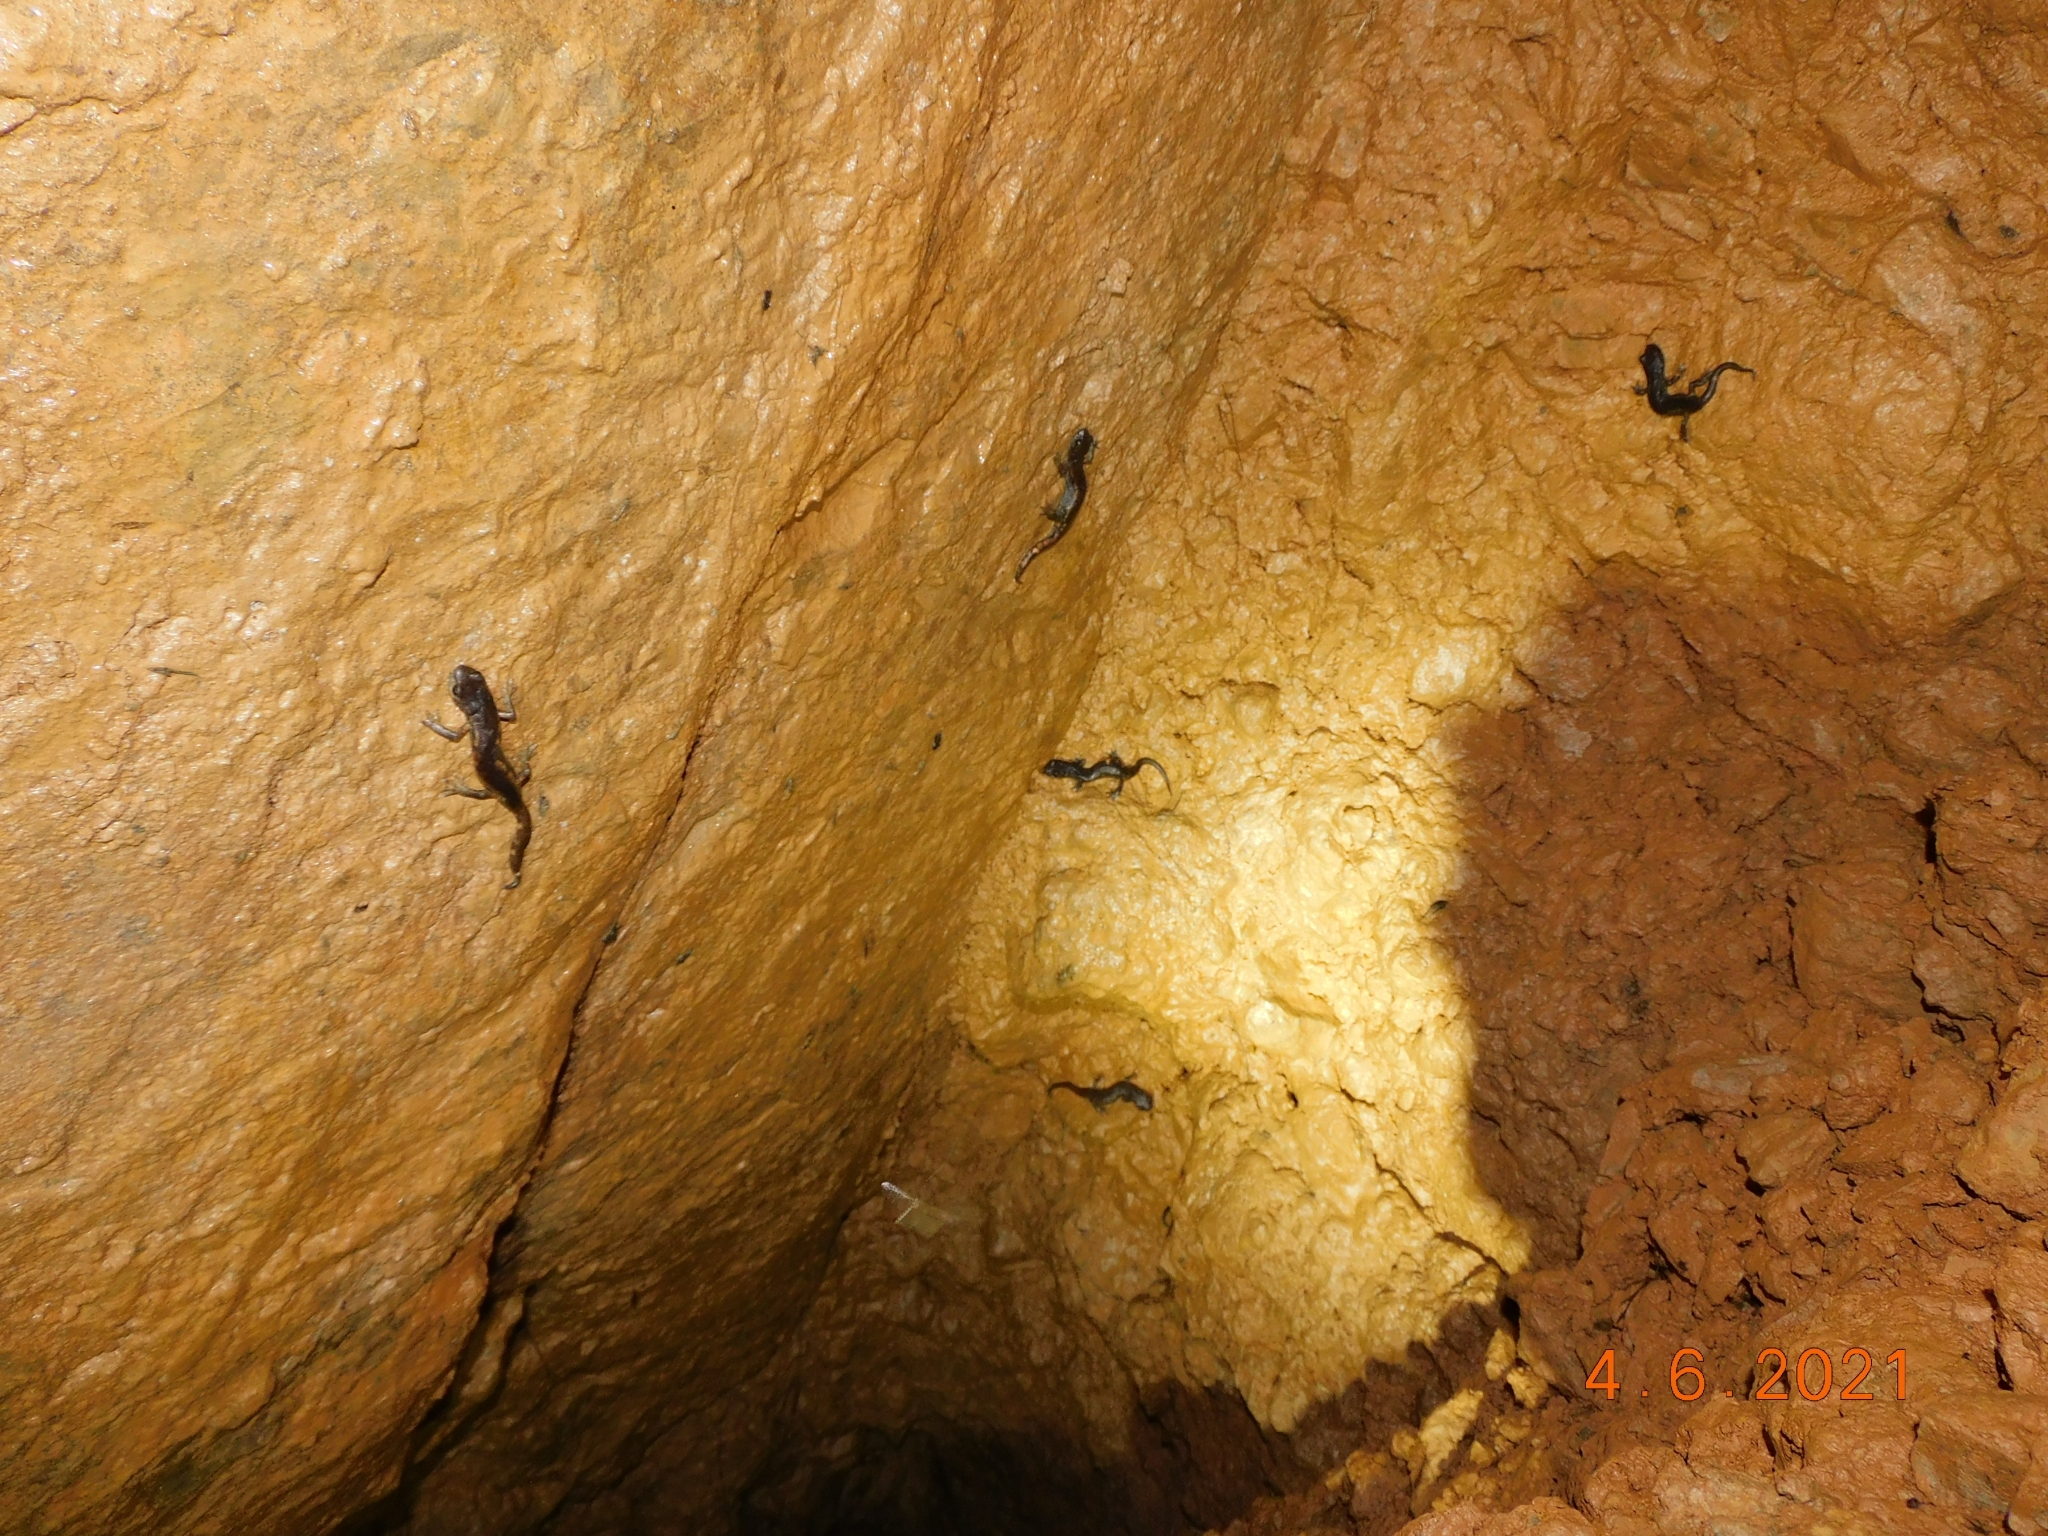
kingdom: Animalia
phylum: Chordata
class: Amphibia
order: Caudata
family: Plethodontidae
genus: Speleomantes
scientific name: Speleomantes ambrosii
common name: Ambrosi's cave salamander
